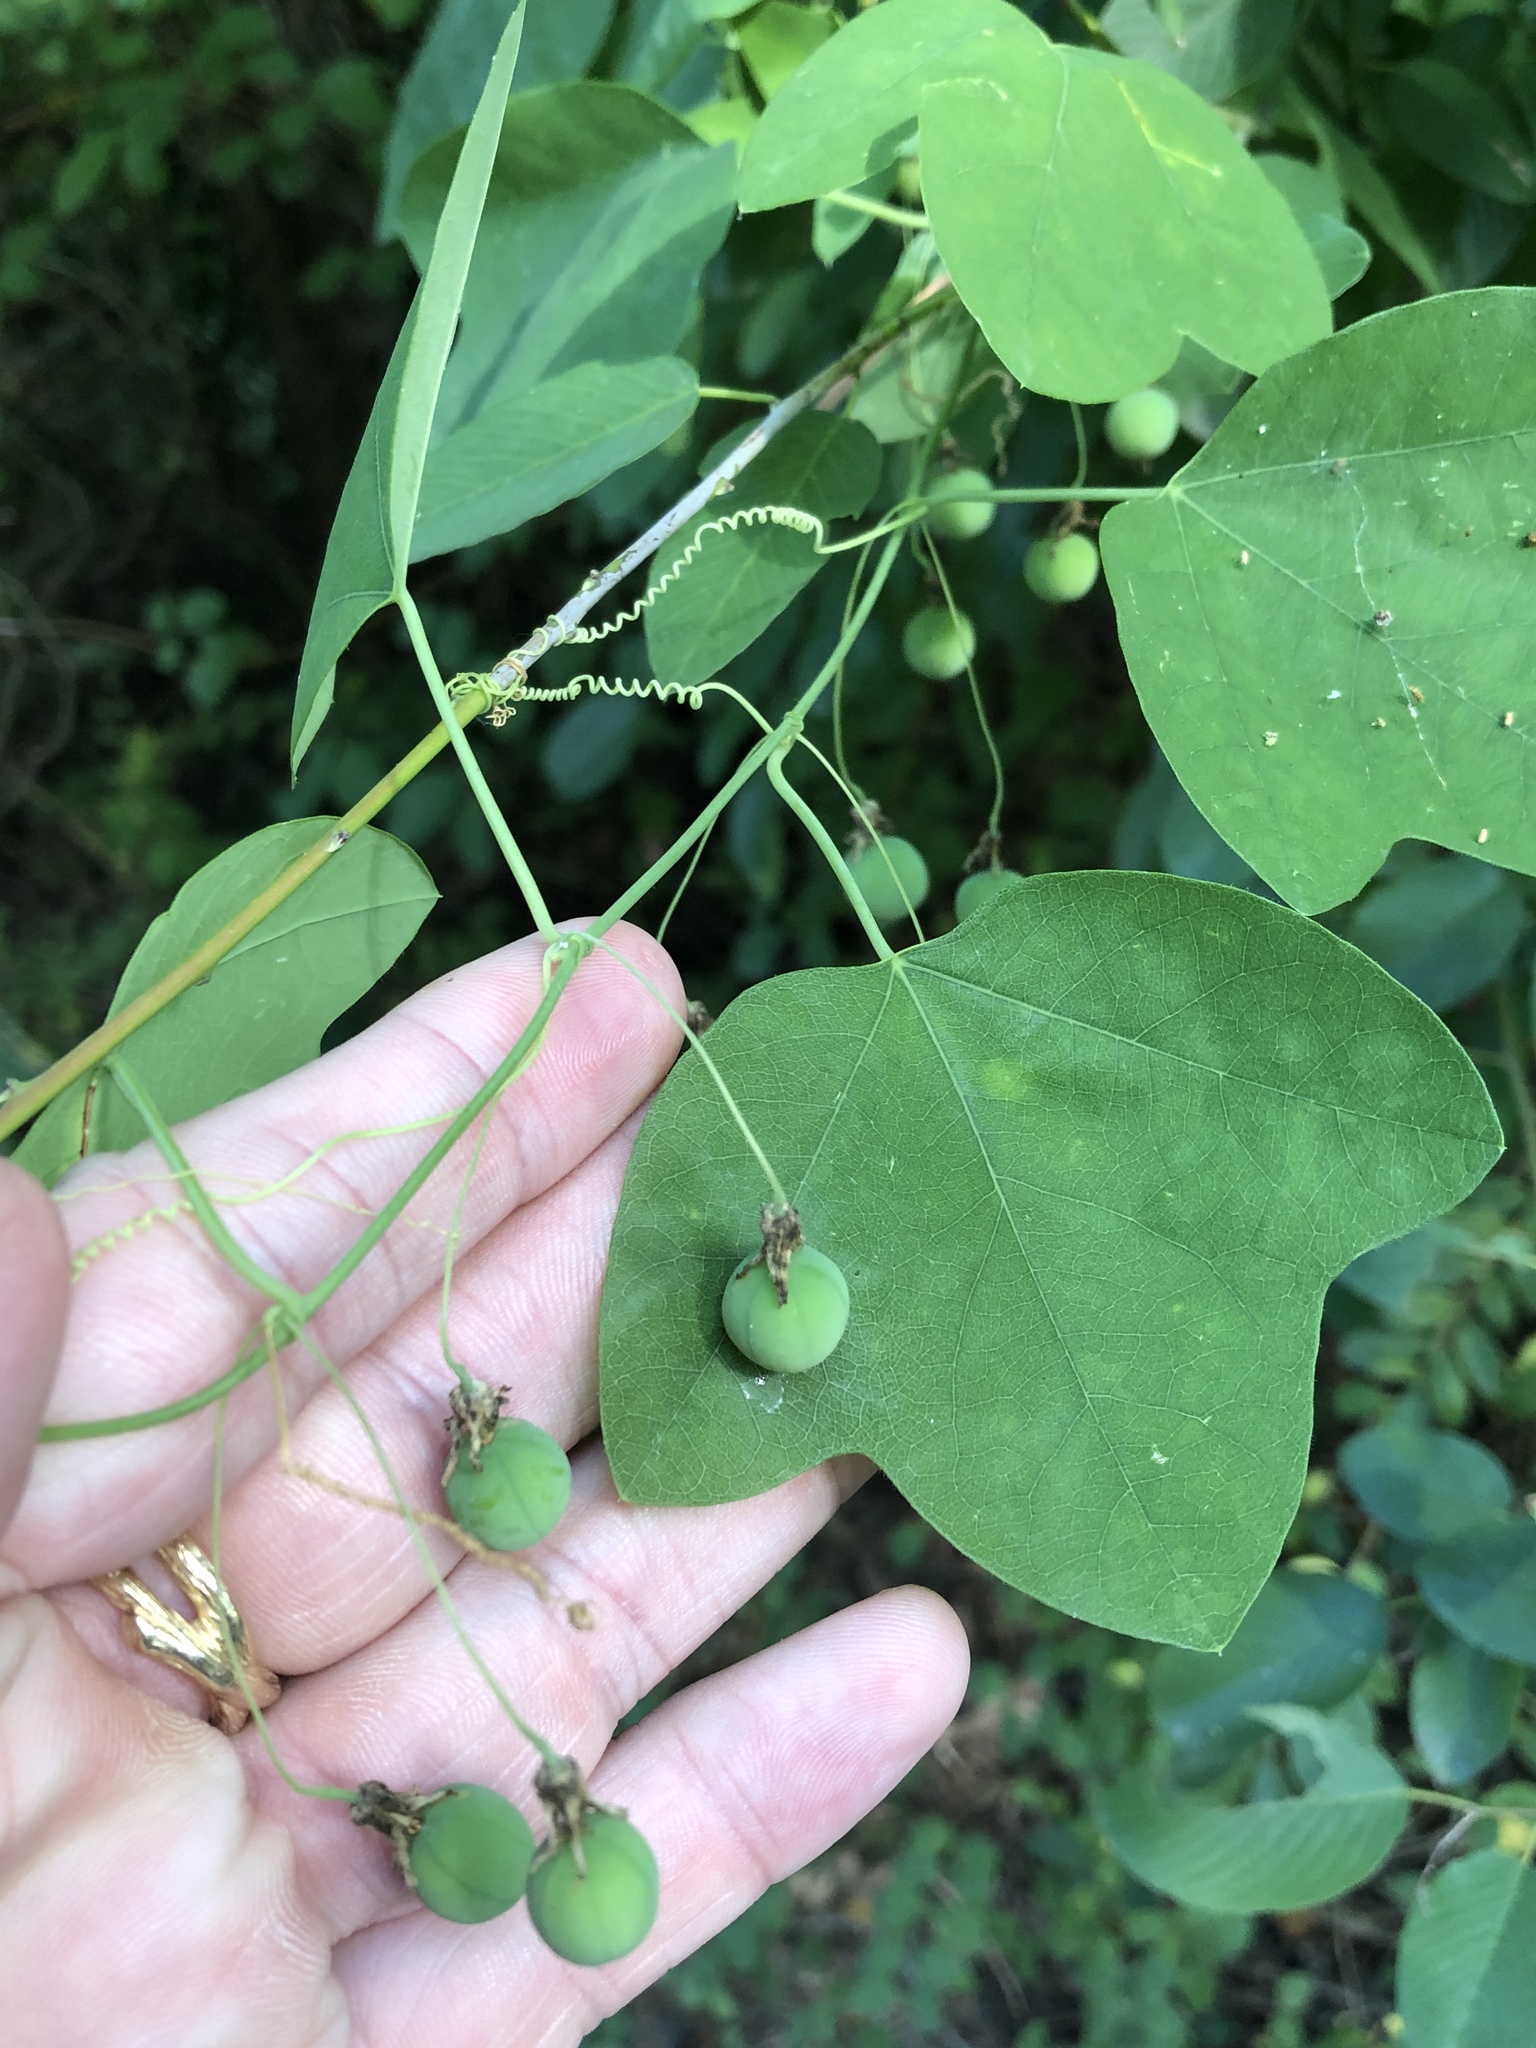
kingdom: Plantae
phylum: Tracheophyta
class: Magnoliopsida
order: Malpighiales
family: Passifloraceae
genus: Passiflora
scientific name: Passiflora lutea
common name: Yellow passionflower
